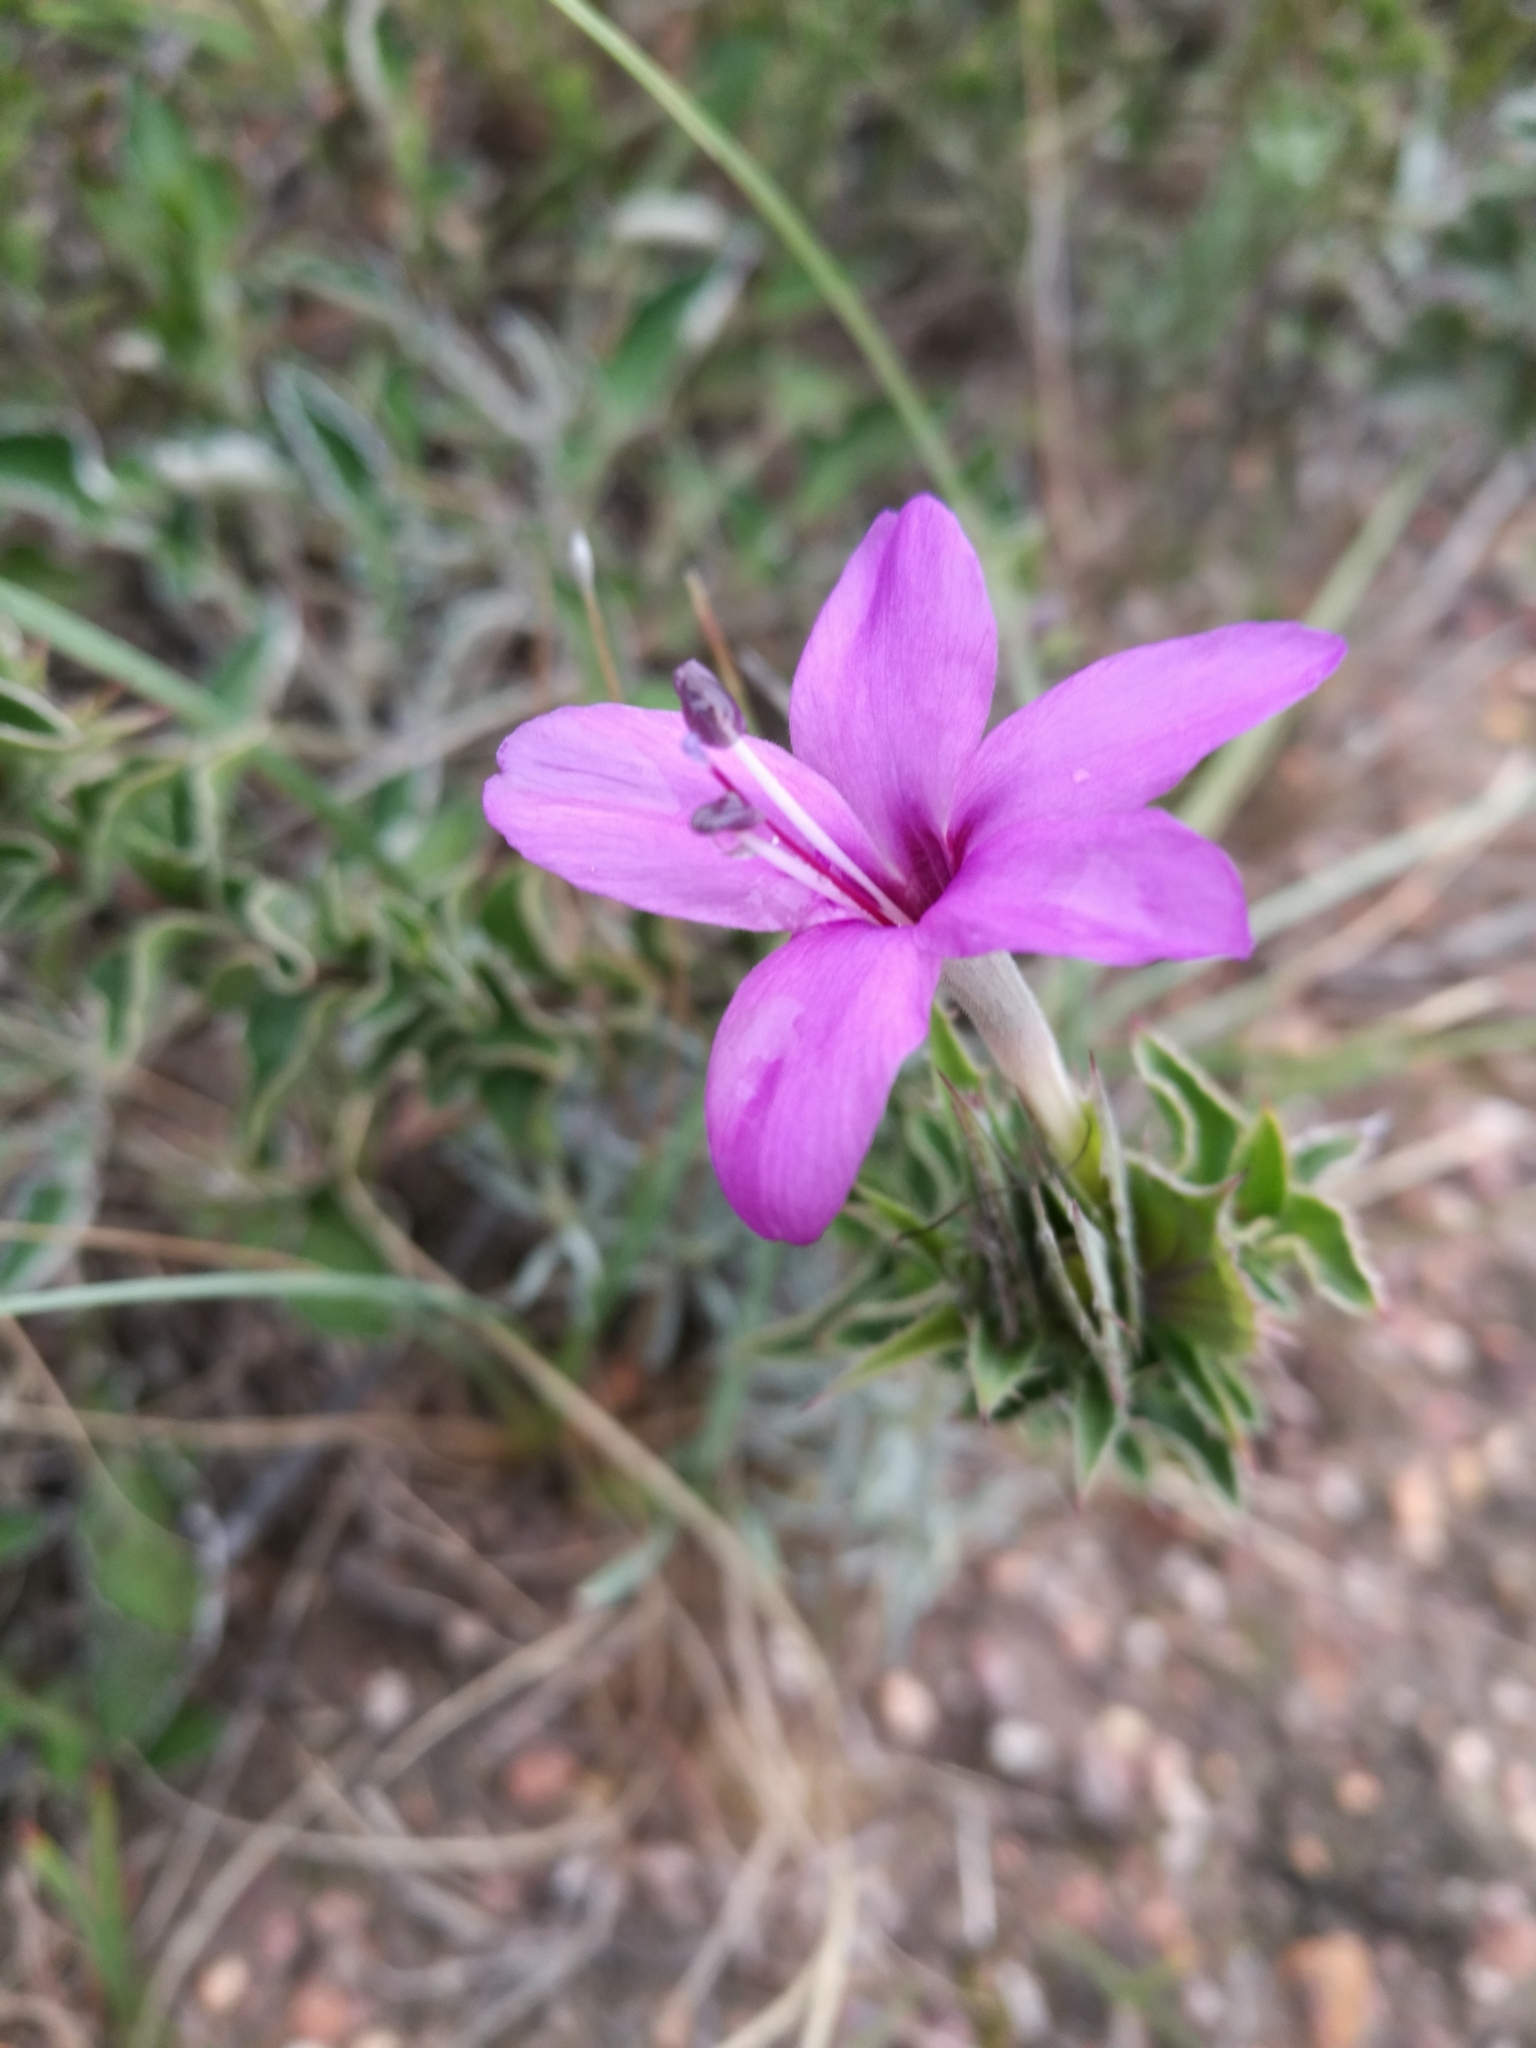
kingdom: Plantae
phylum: Tracheophyta
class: Magnoliopsida
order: Lamiales
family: Acanthaceae
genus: Barleria
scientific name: Barleria pungens
